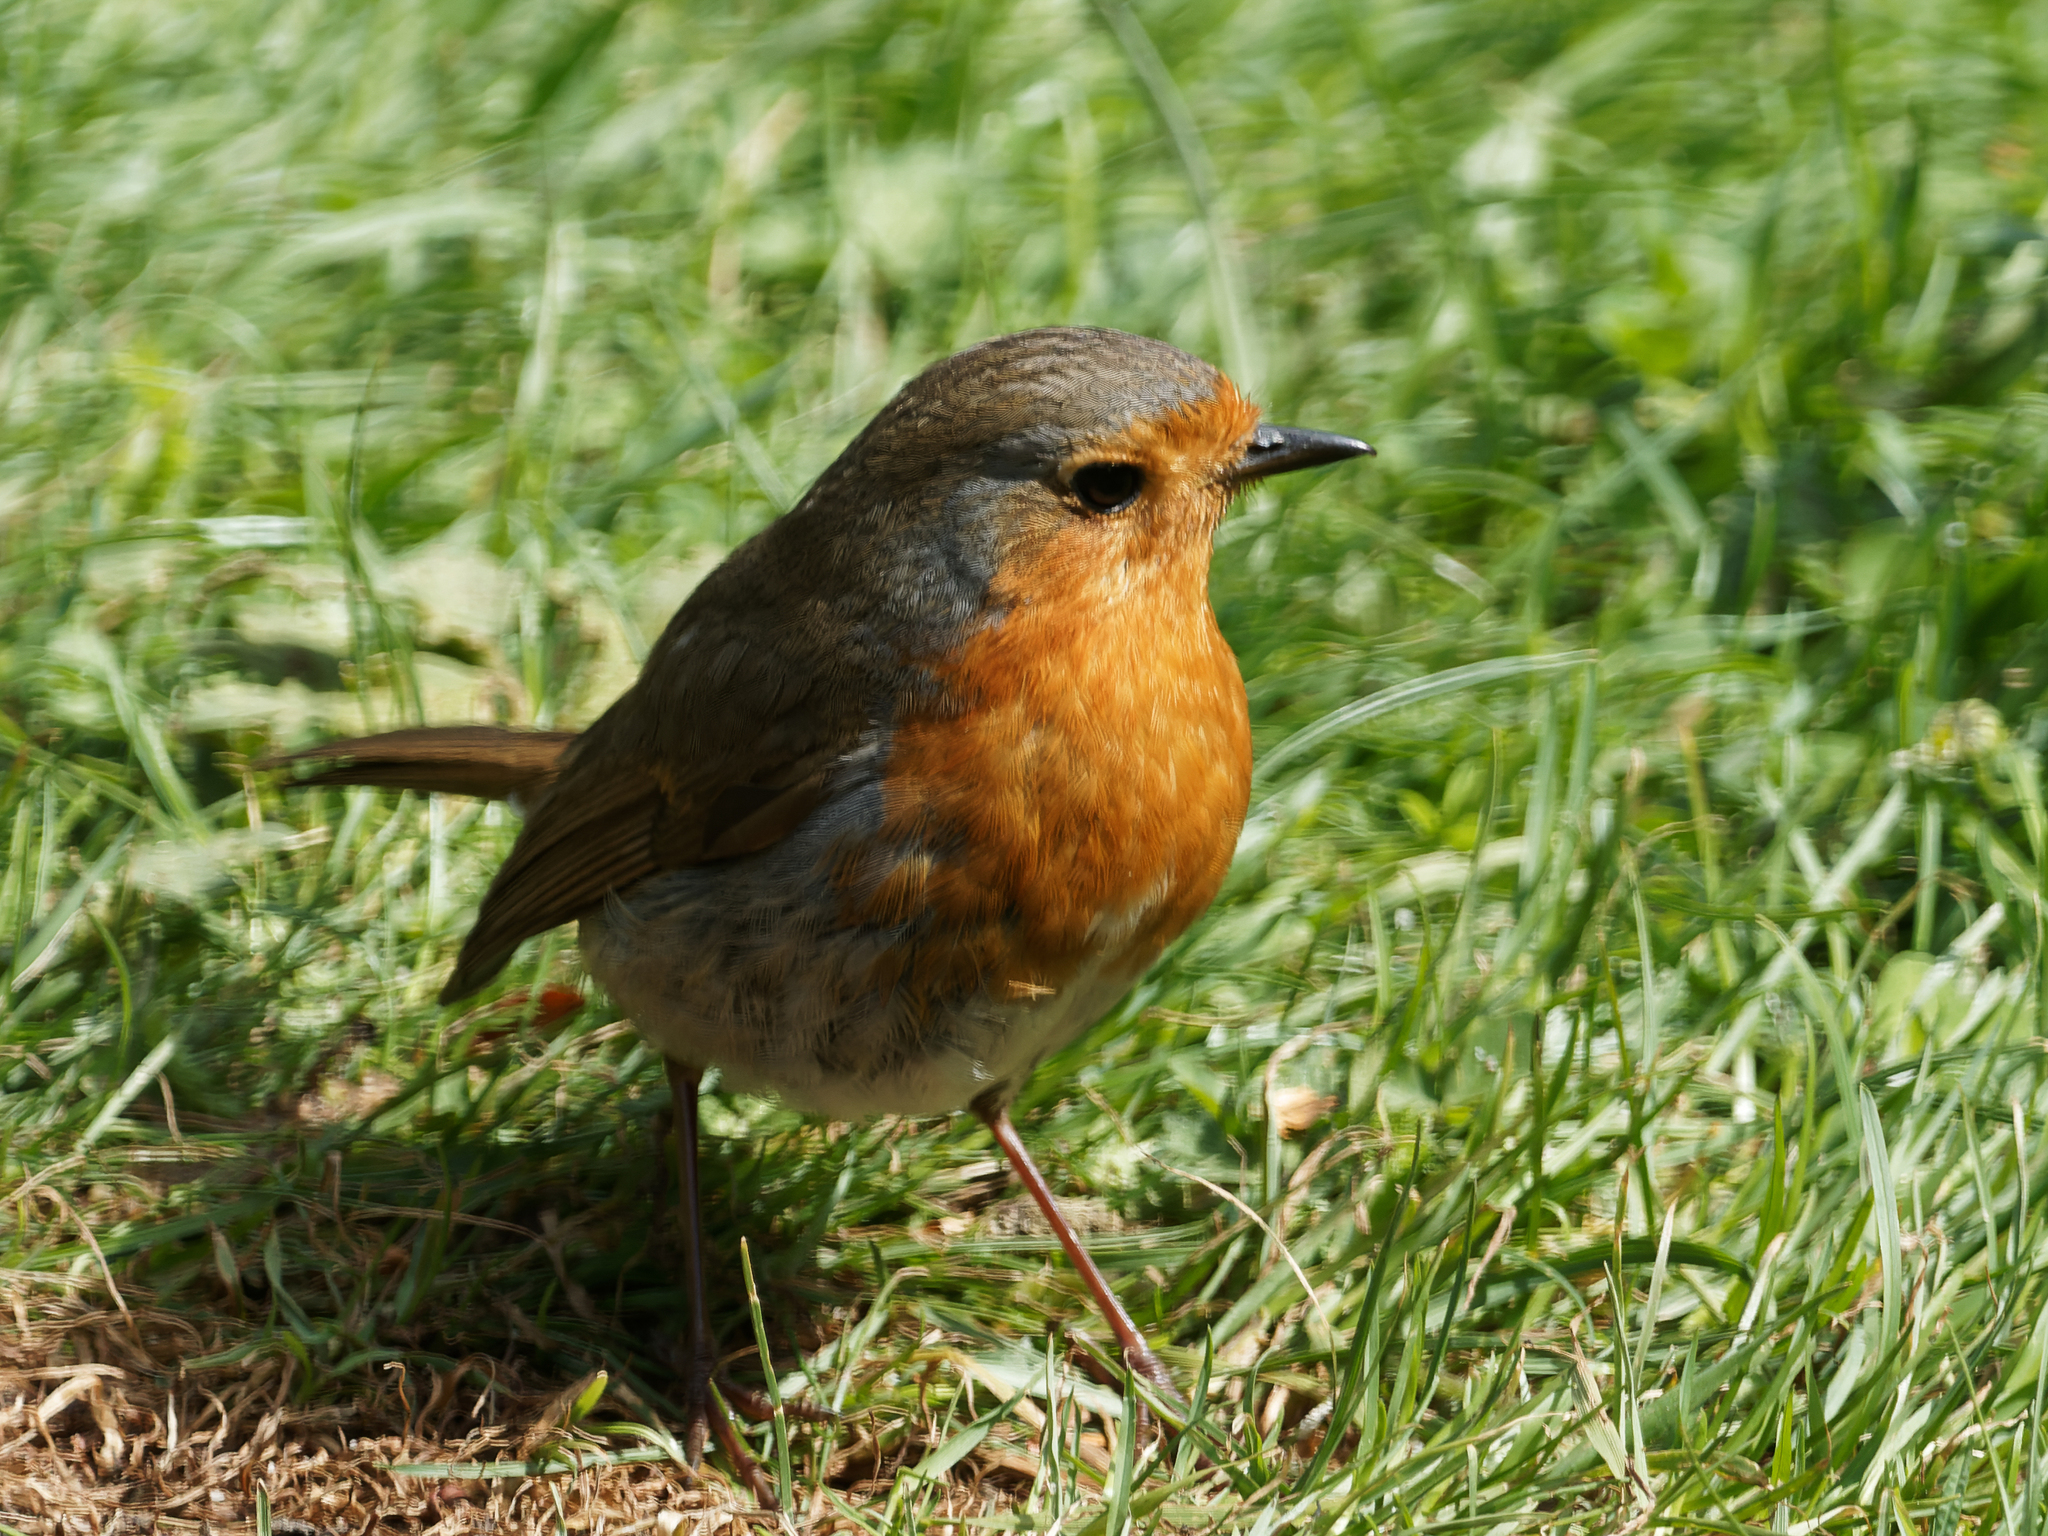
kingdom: Animalia
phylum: Chordata
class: Aves
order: Passeriformes
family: Muscicapidae
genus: Erithacus
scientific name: Erithacus rubecula
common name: European robin
